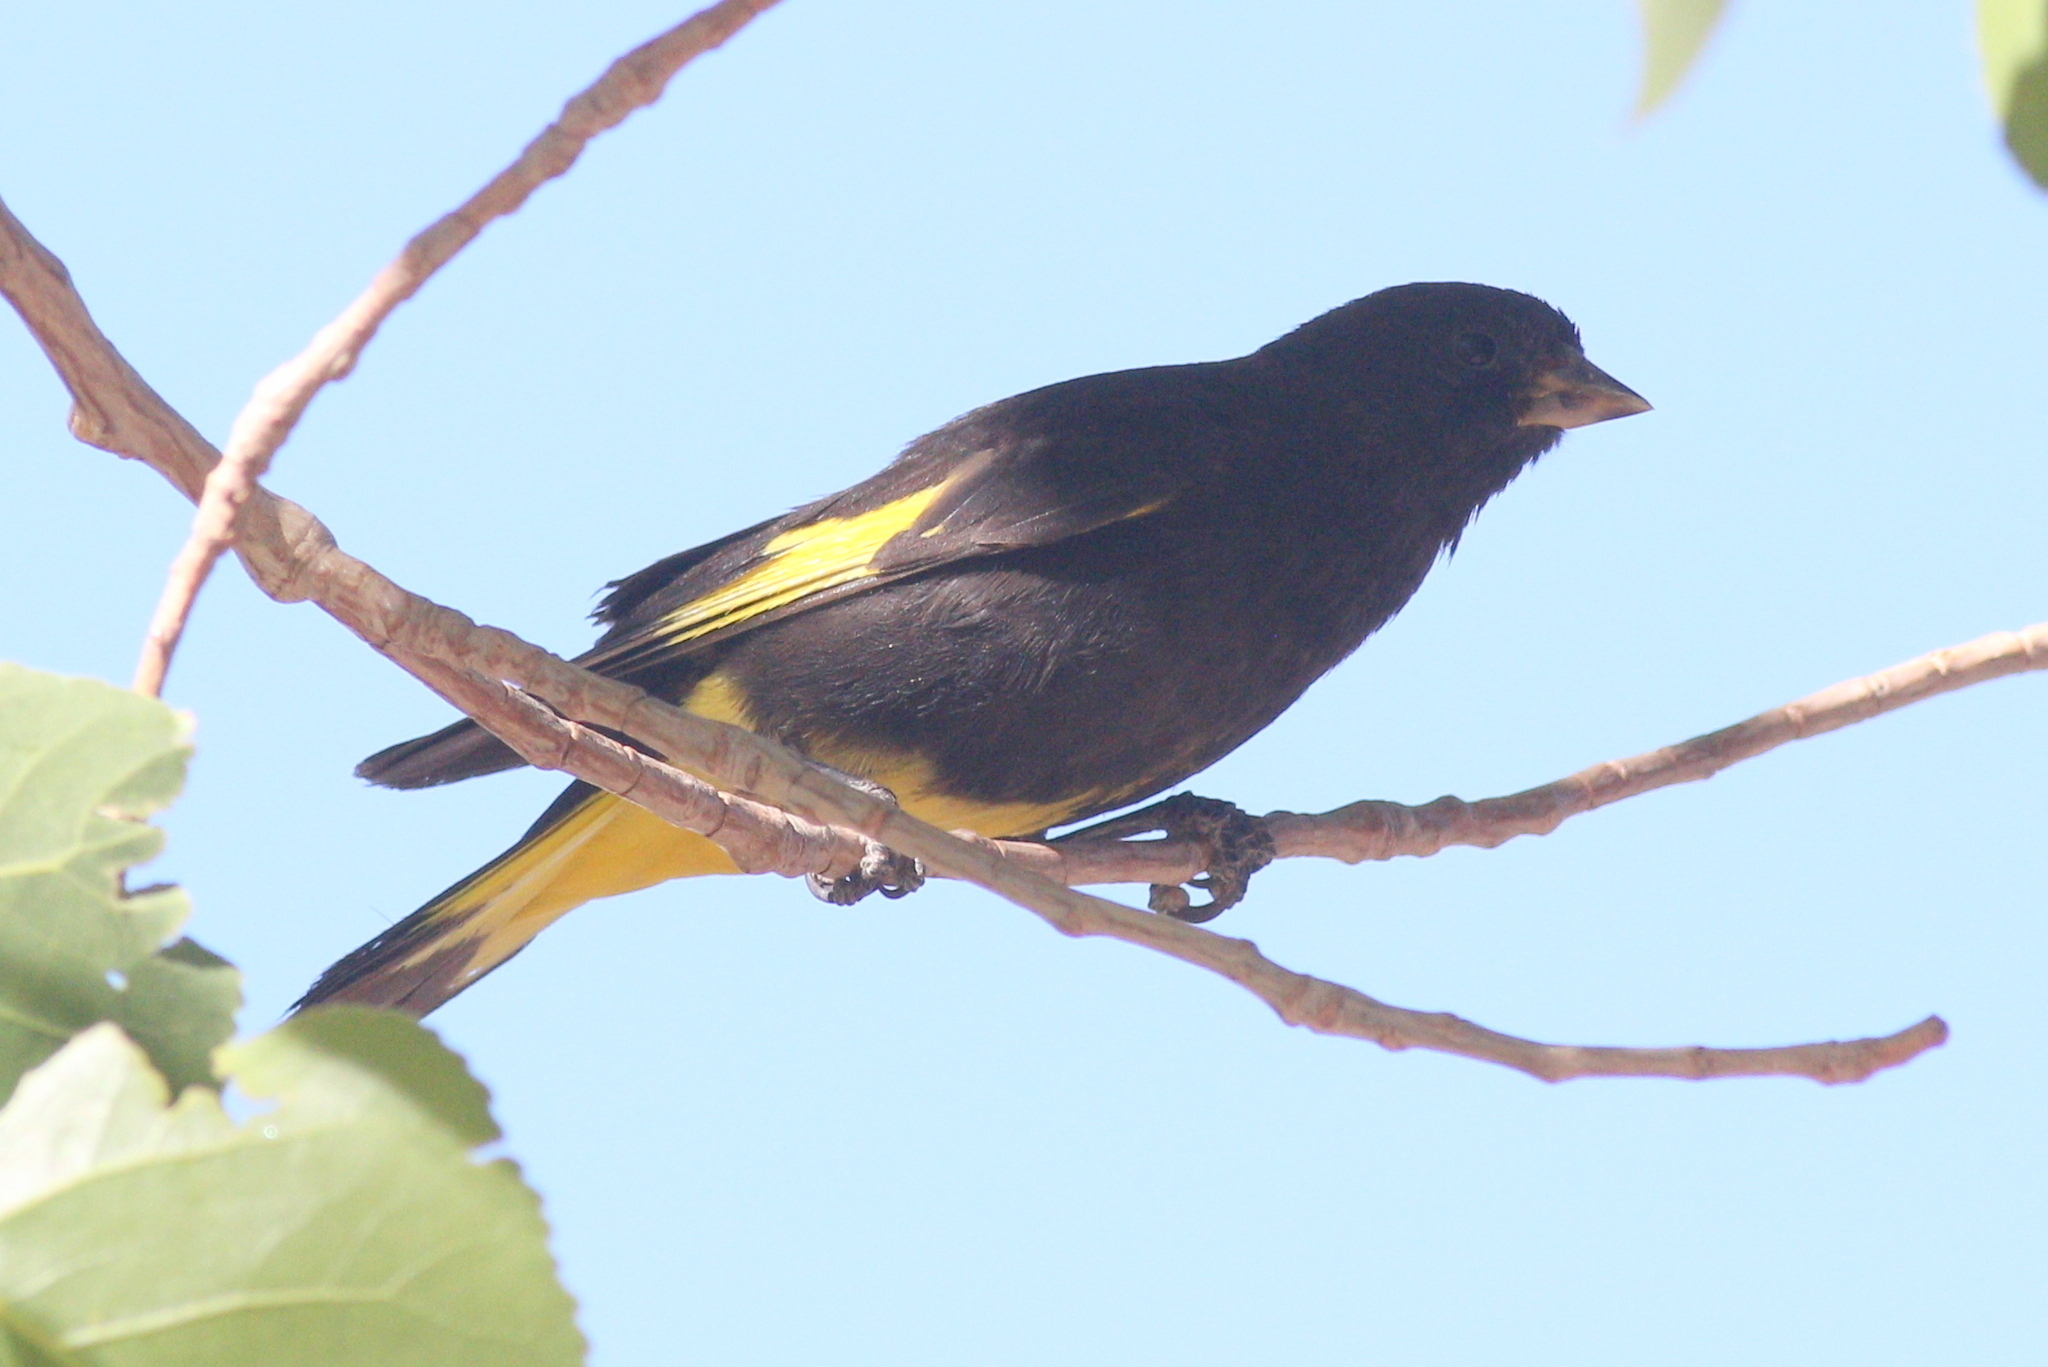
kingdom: Animalia
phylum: Chordata
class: Aves
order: Passeriformes
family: Fringillidae
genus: Spinus
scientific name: Spinus atratus
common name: Black siskin
